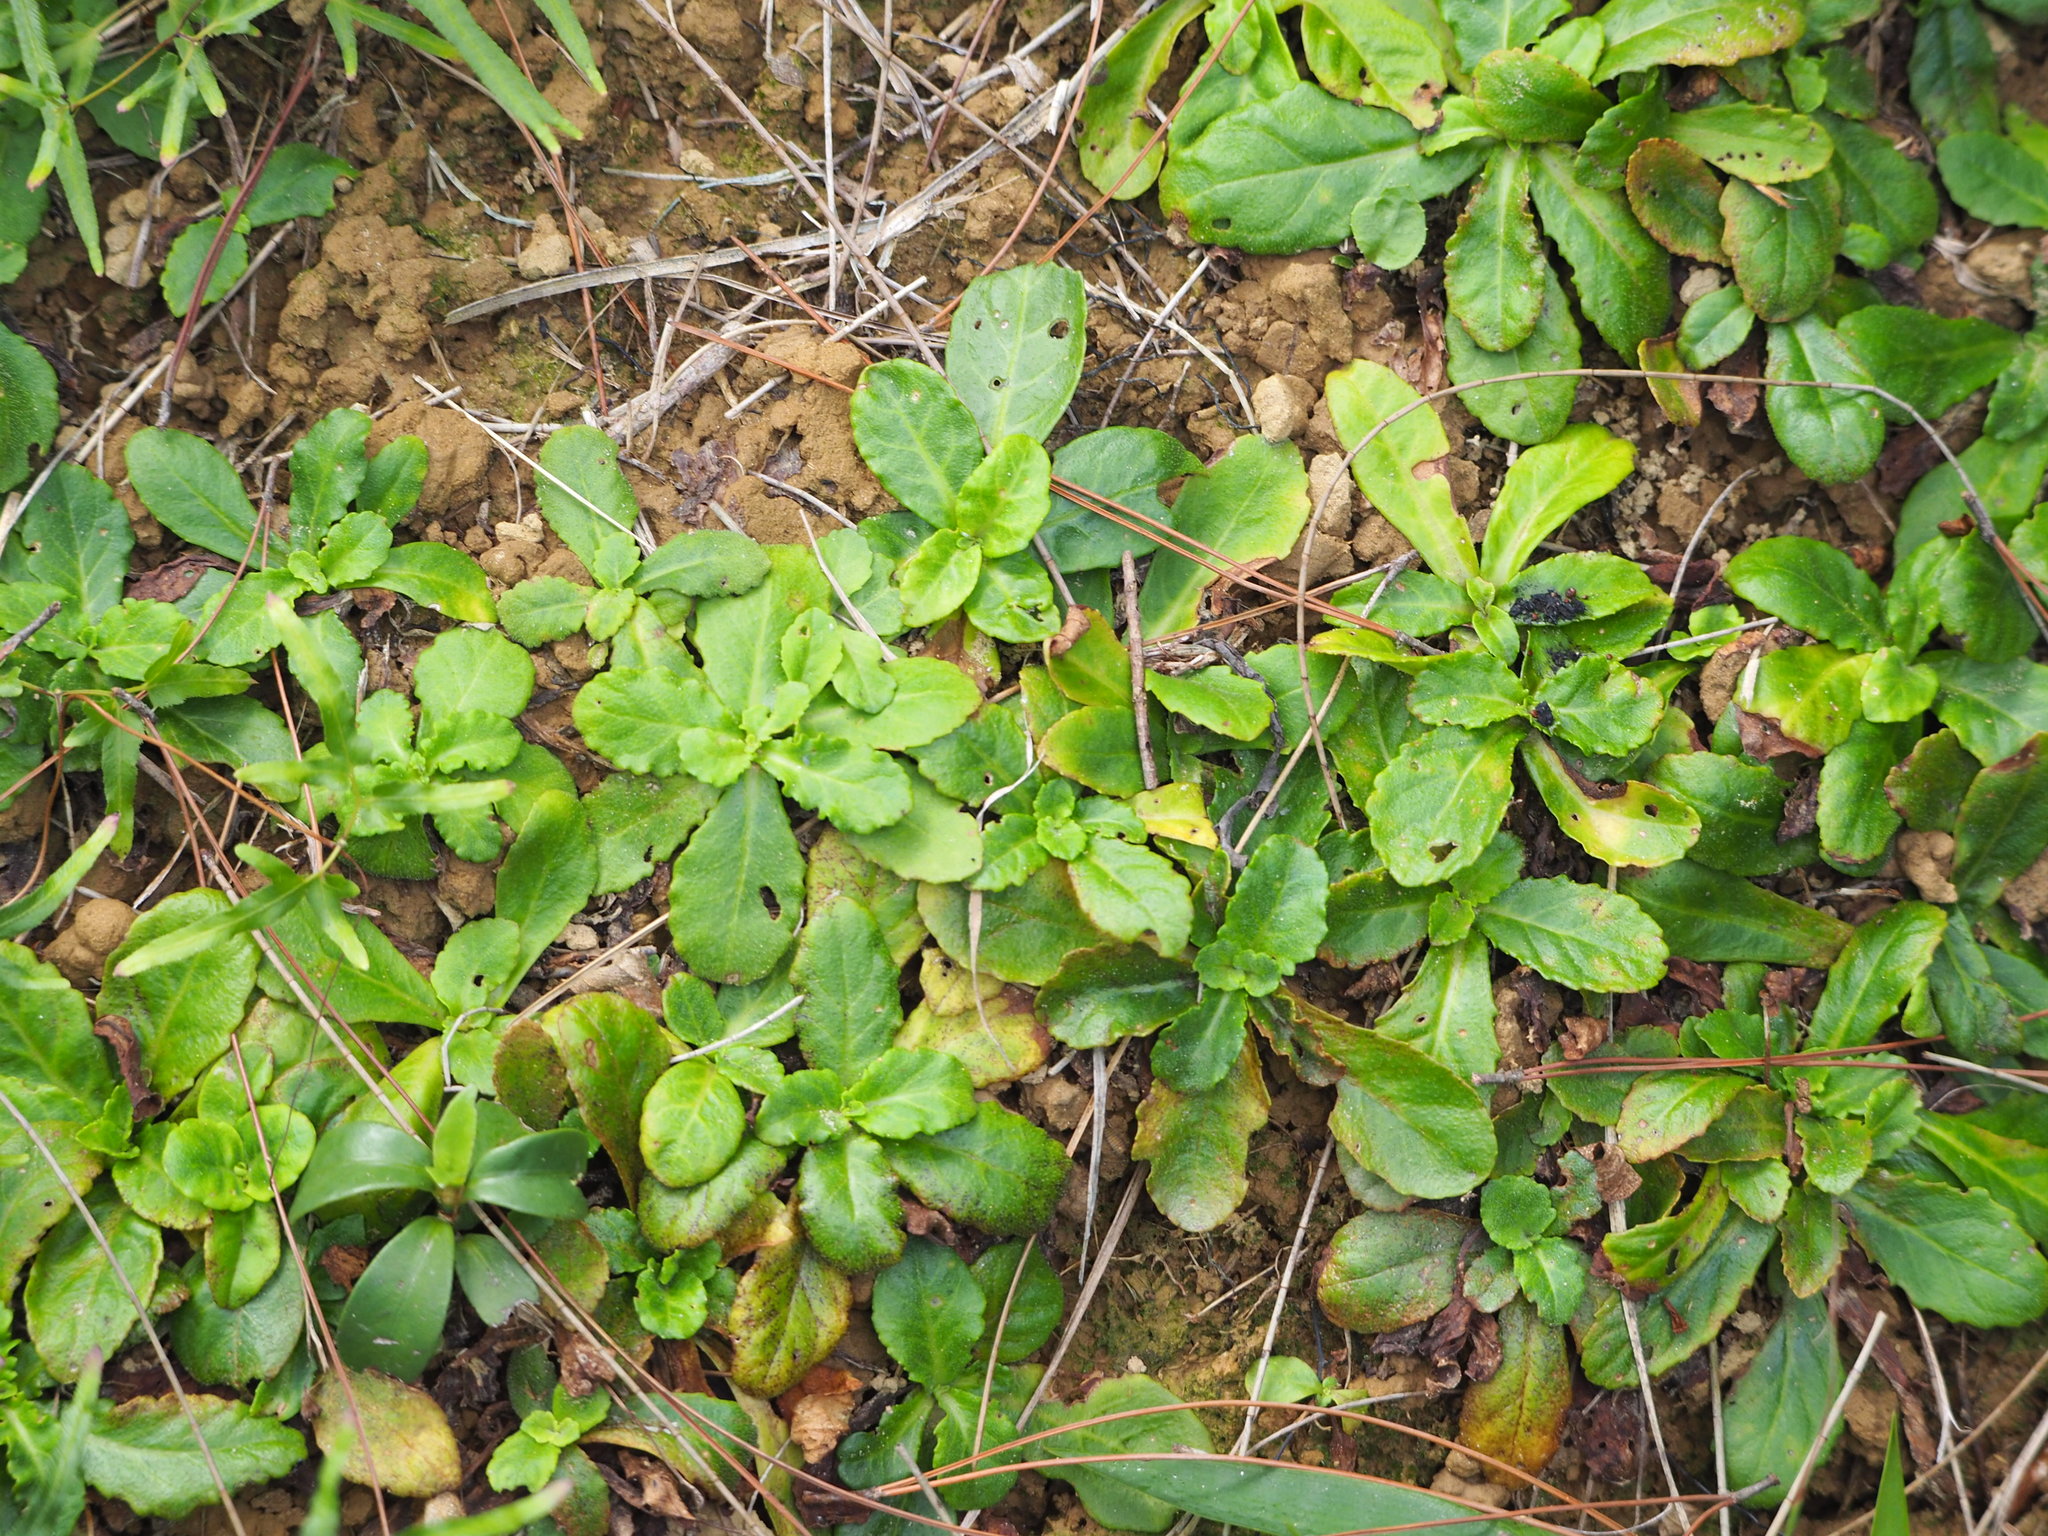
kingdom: Plantae
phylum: Tracheophyta
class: Magnoliopsida
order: Lamiales
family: Mazaceae
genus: Mazus
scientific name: Mazus fauriei
